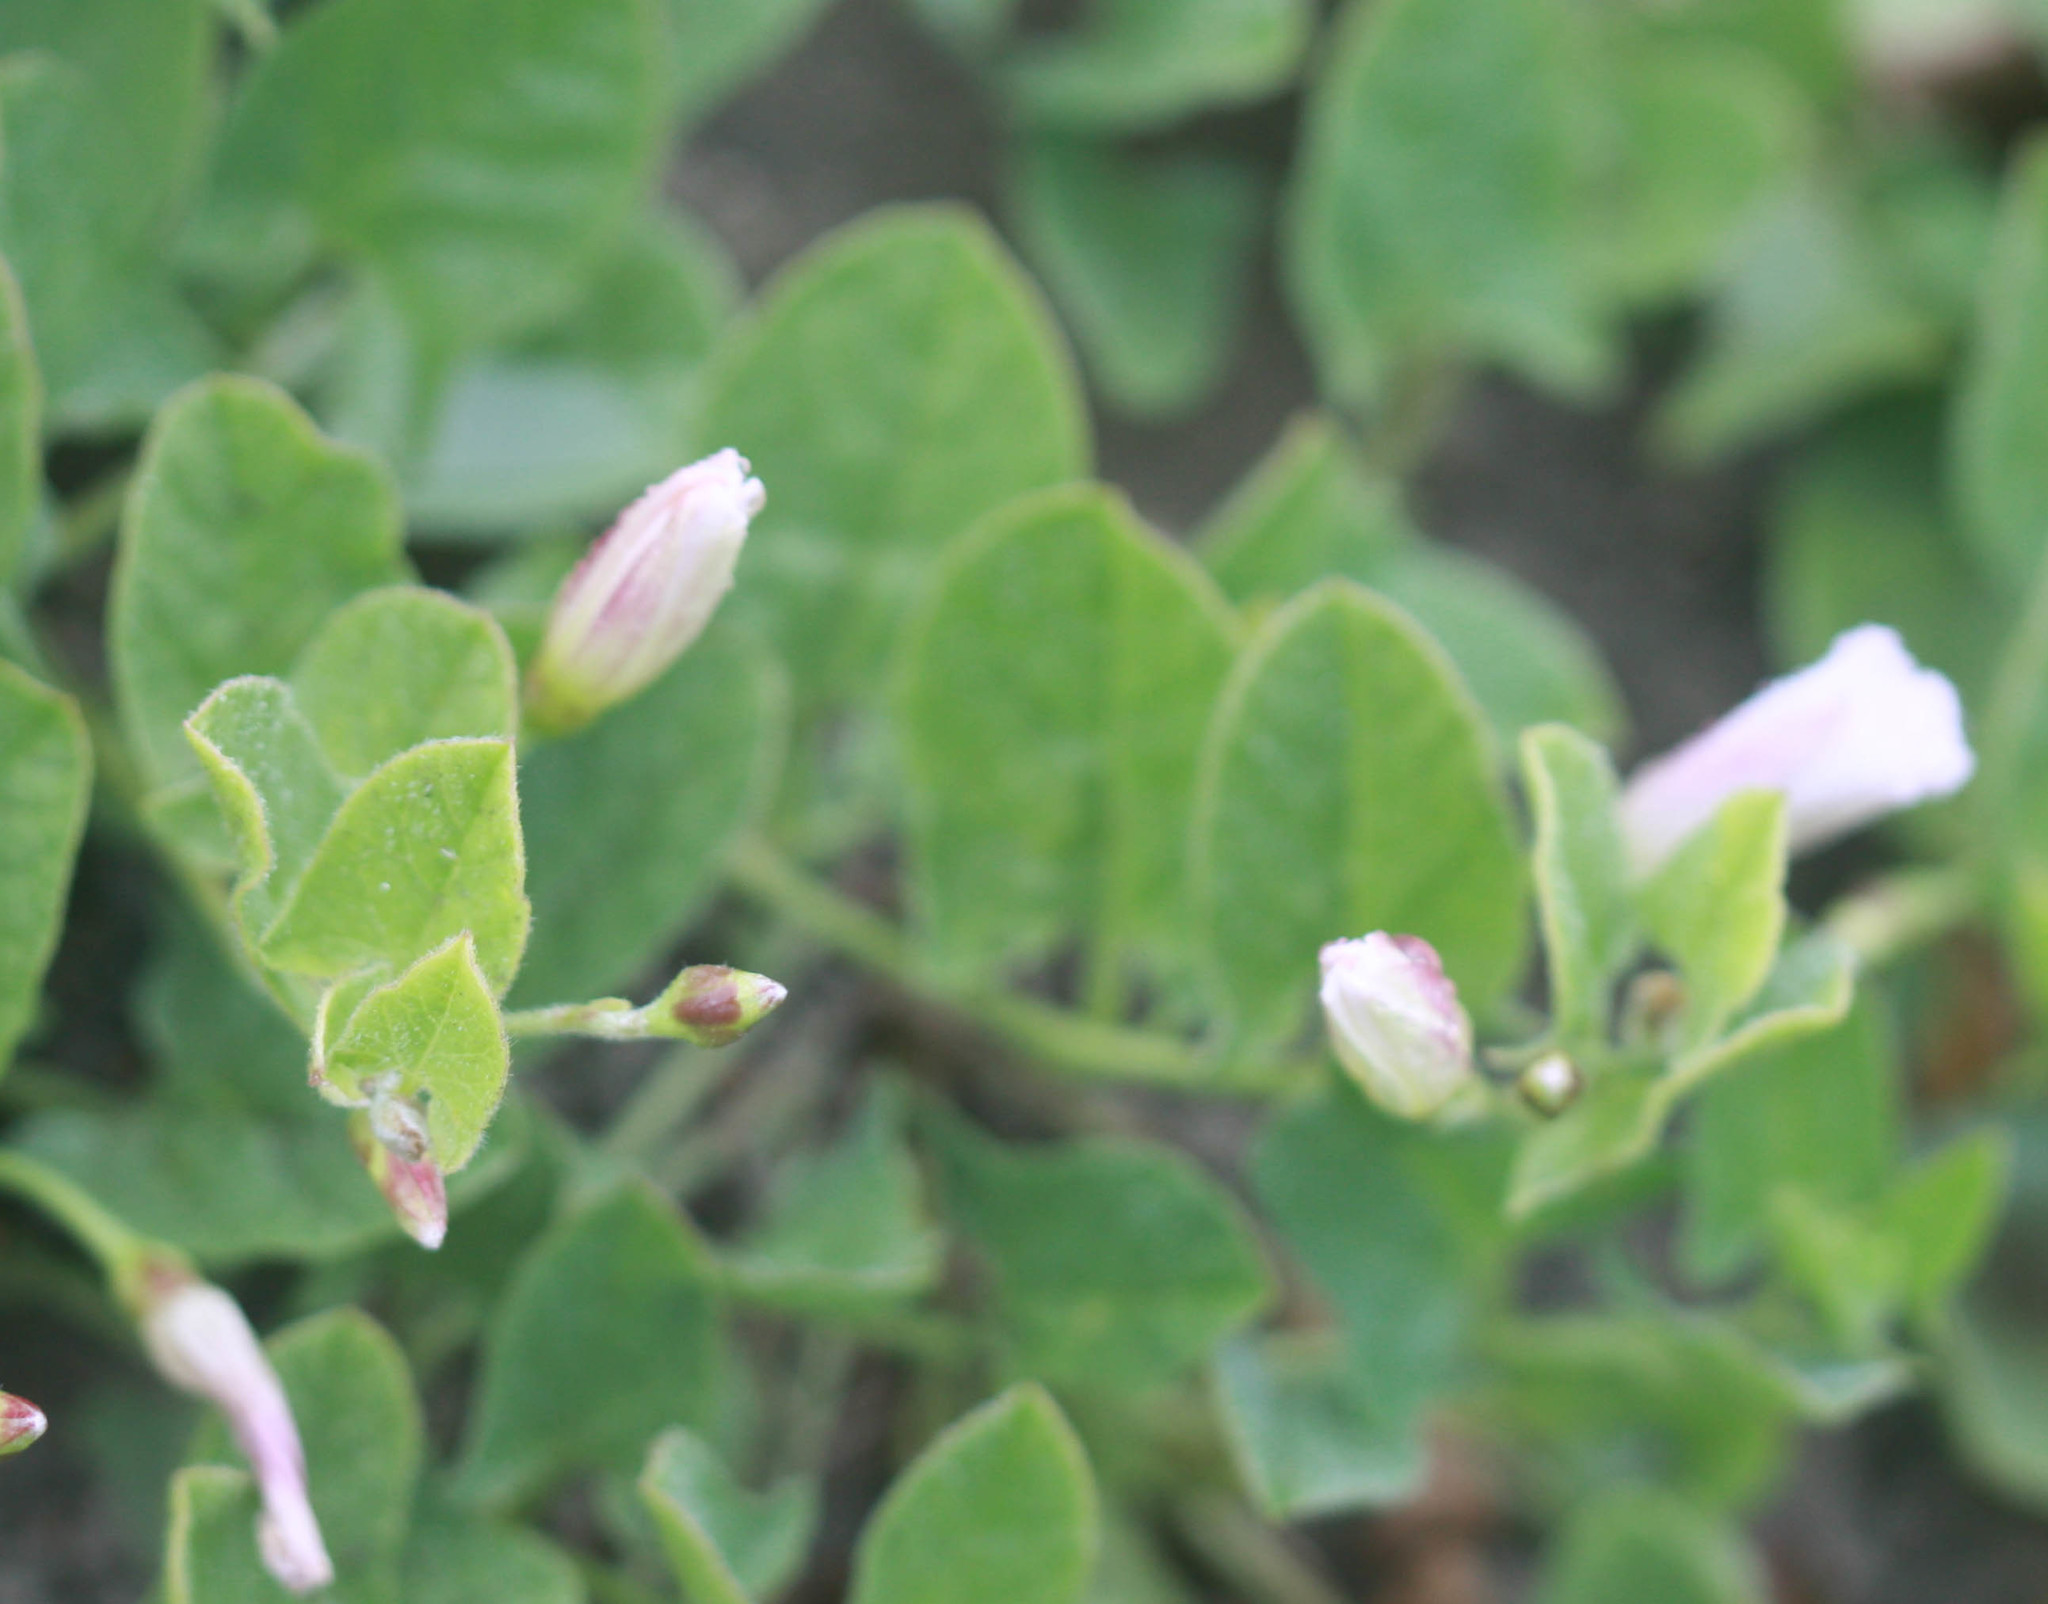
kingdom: Plantae
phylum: Tracheophyta
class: Magnoliopsida
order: Solanales
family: Convolvulaceae
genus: Convolvulus
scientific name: Convolvulus arvensis
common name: Field bindweed
